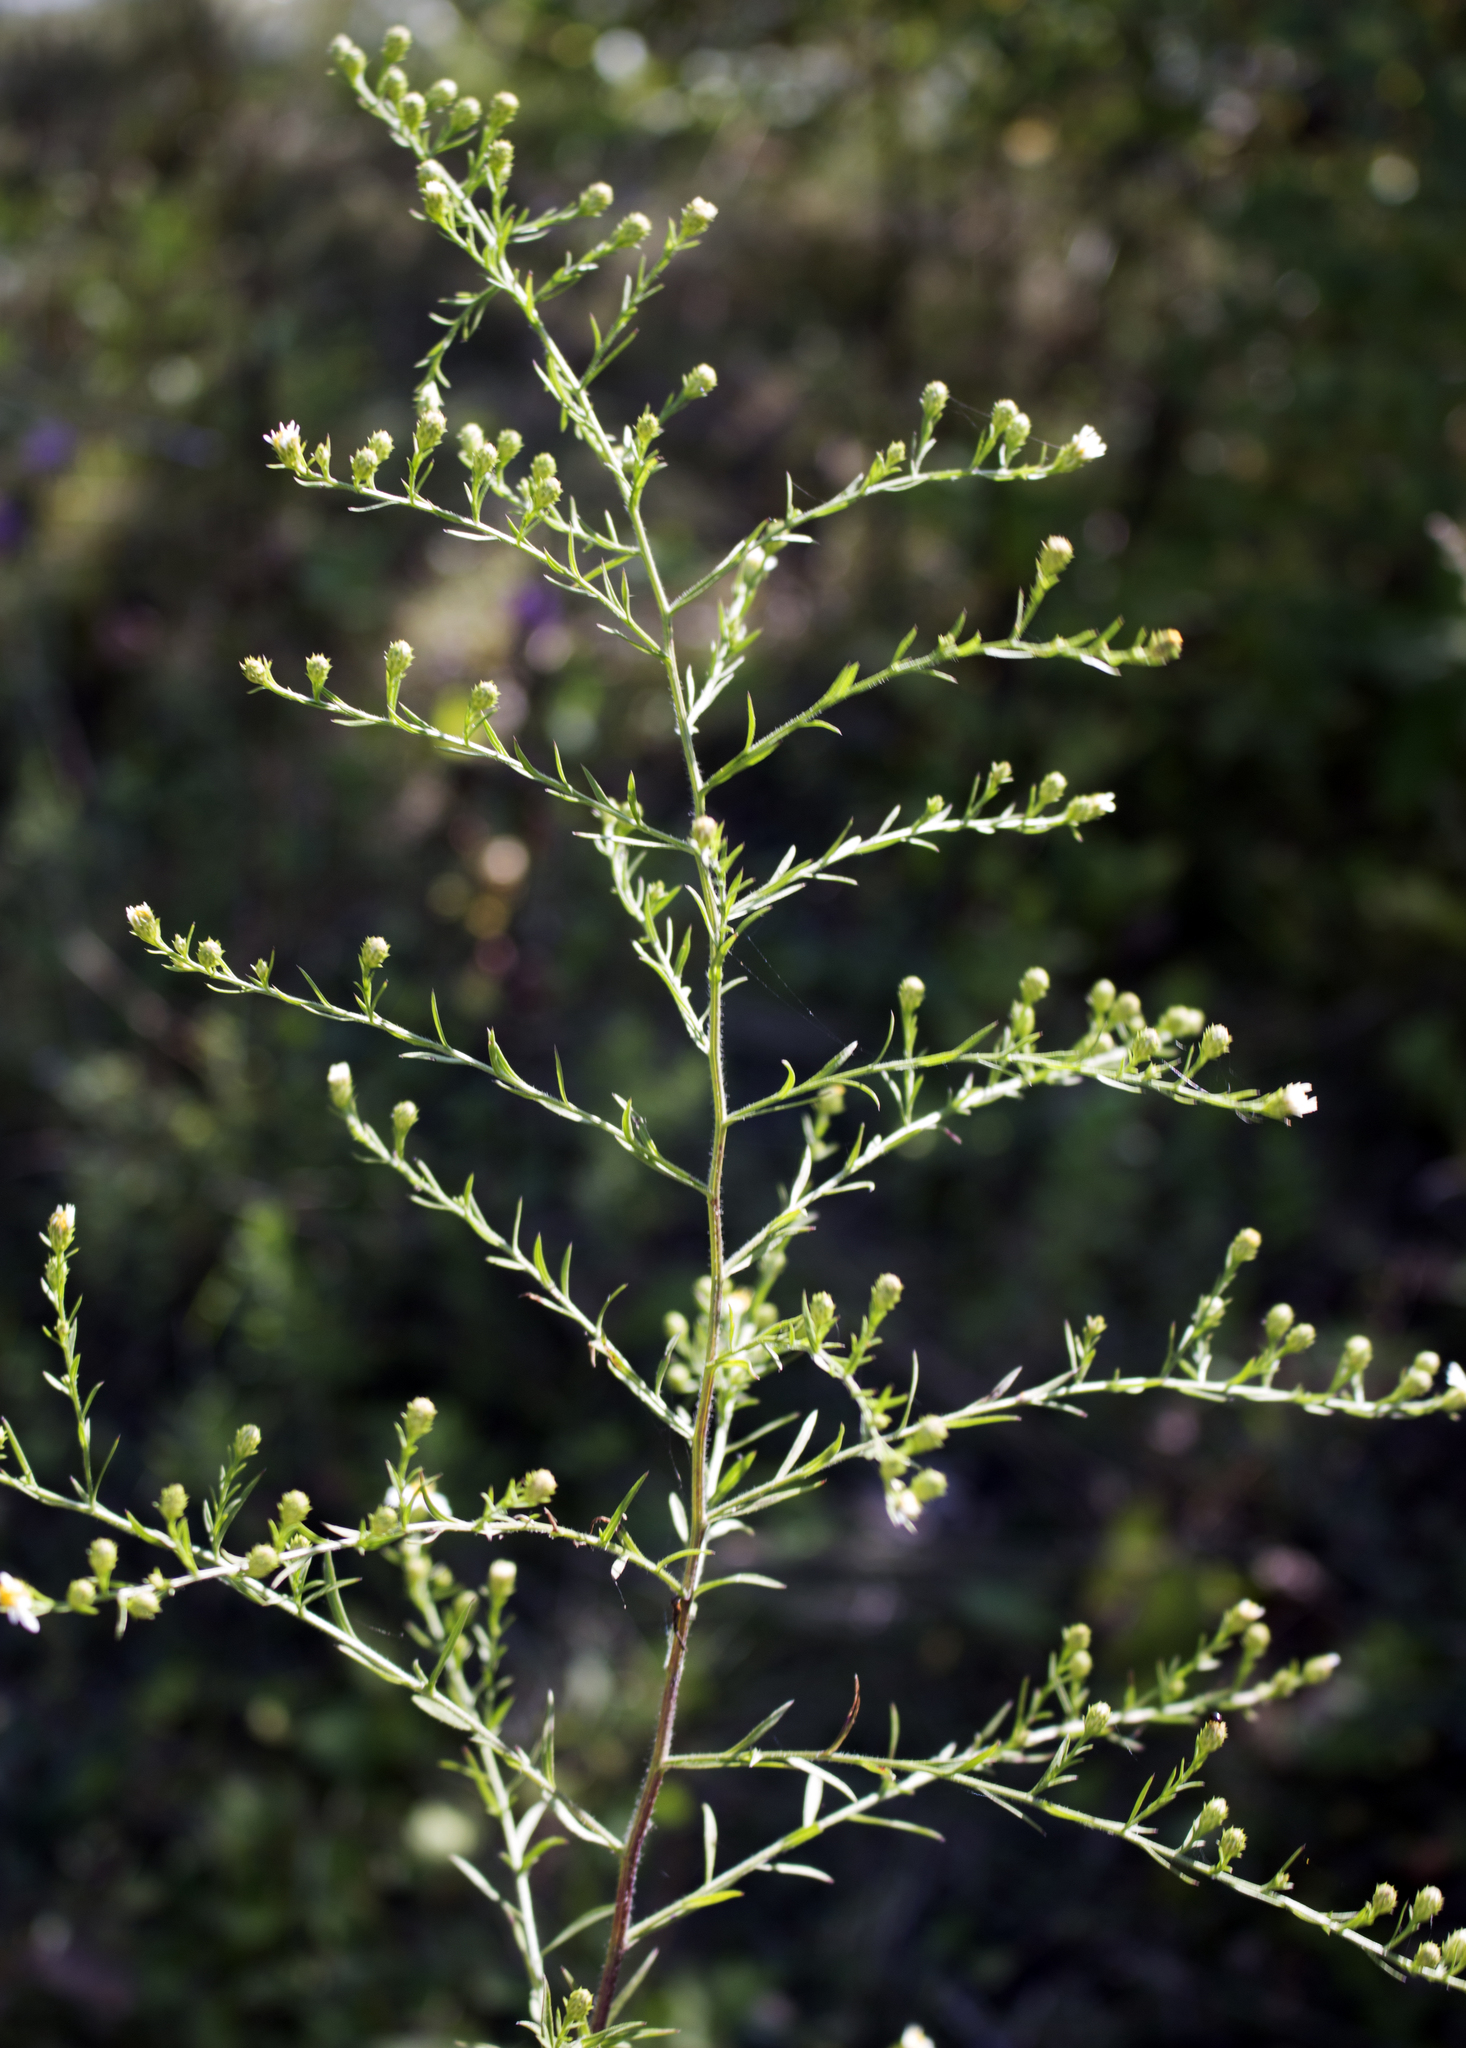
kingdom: Plantae
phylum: Tracheophyta
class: Magnoliopsida
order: Asterales
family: Asteraceae
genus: Symphyotrichum
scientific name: Symphyotrichum pilosum
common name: Awl aster
